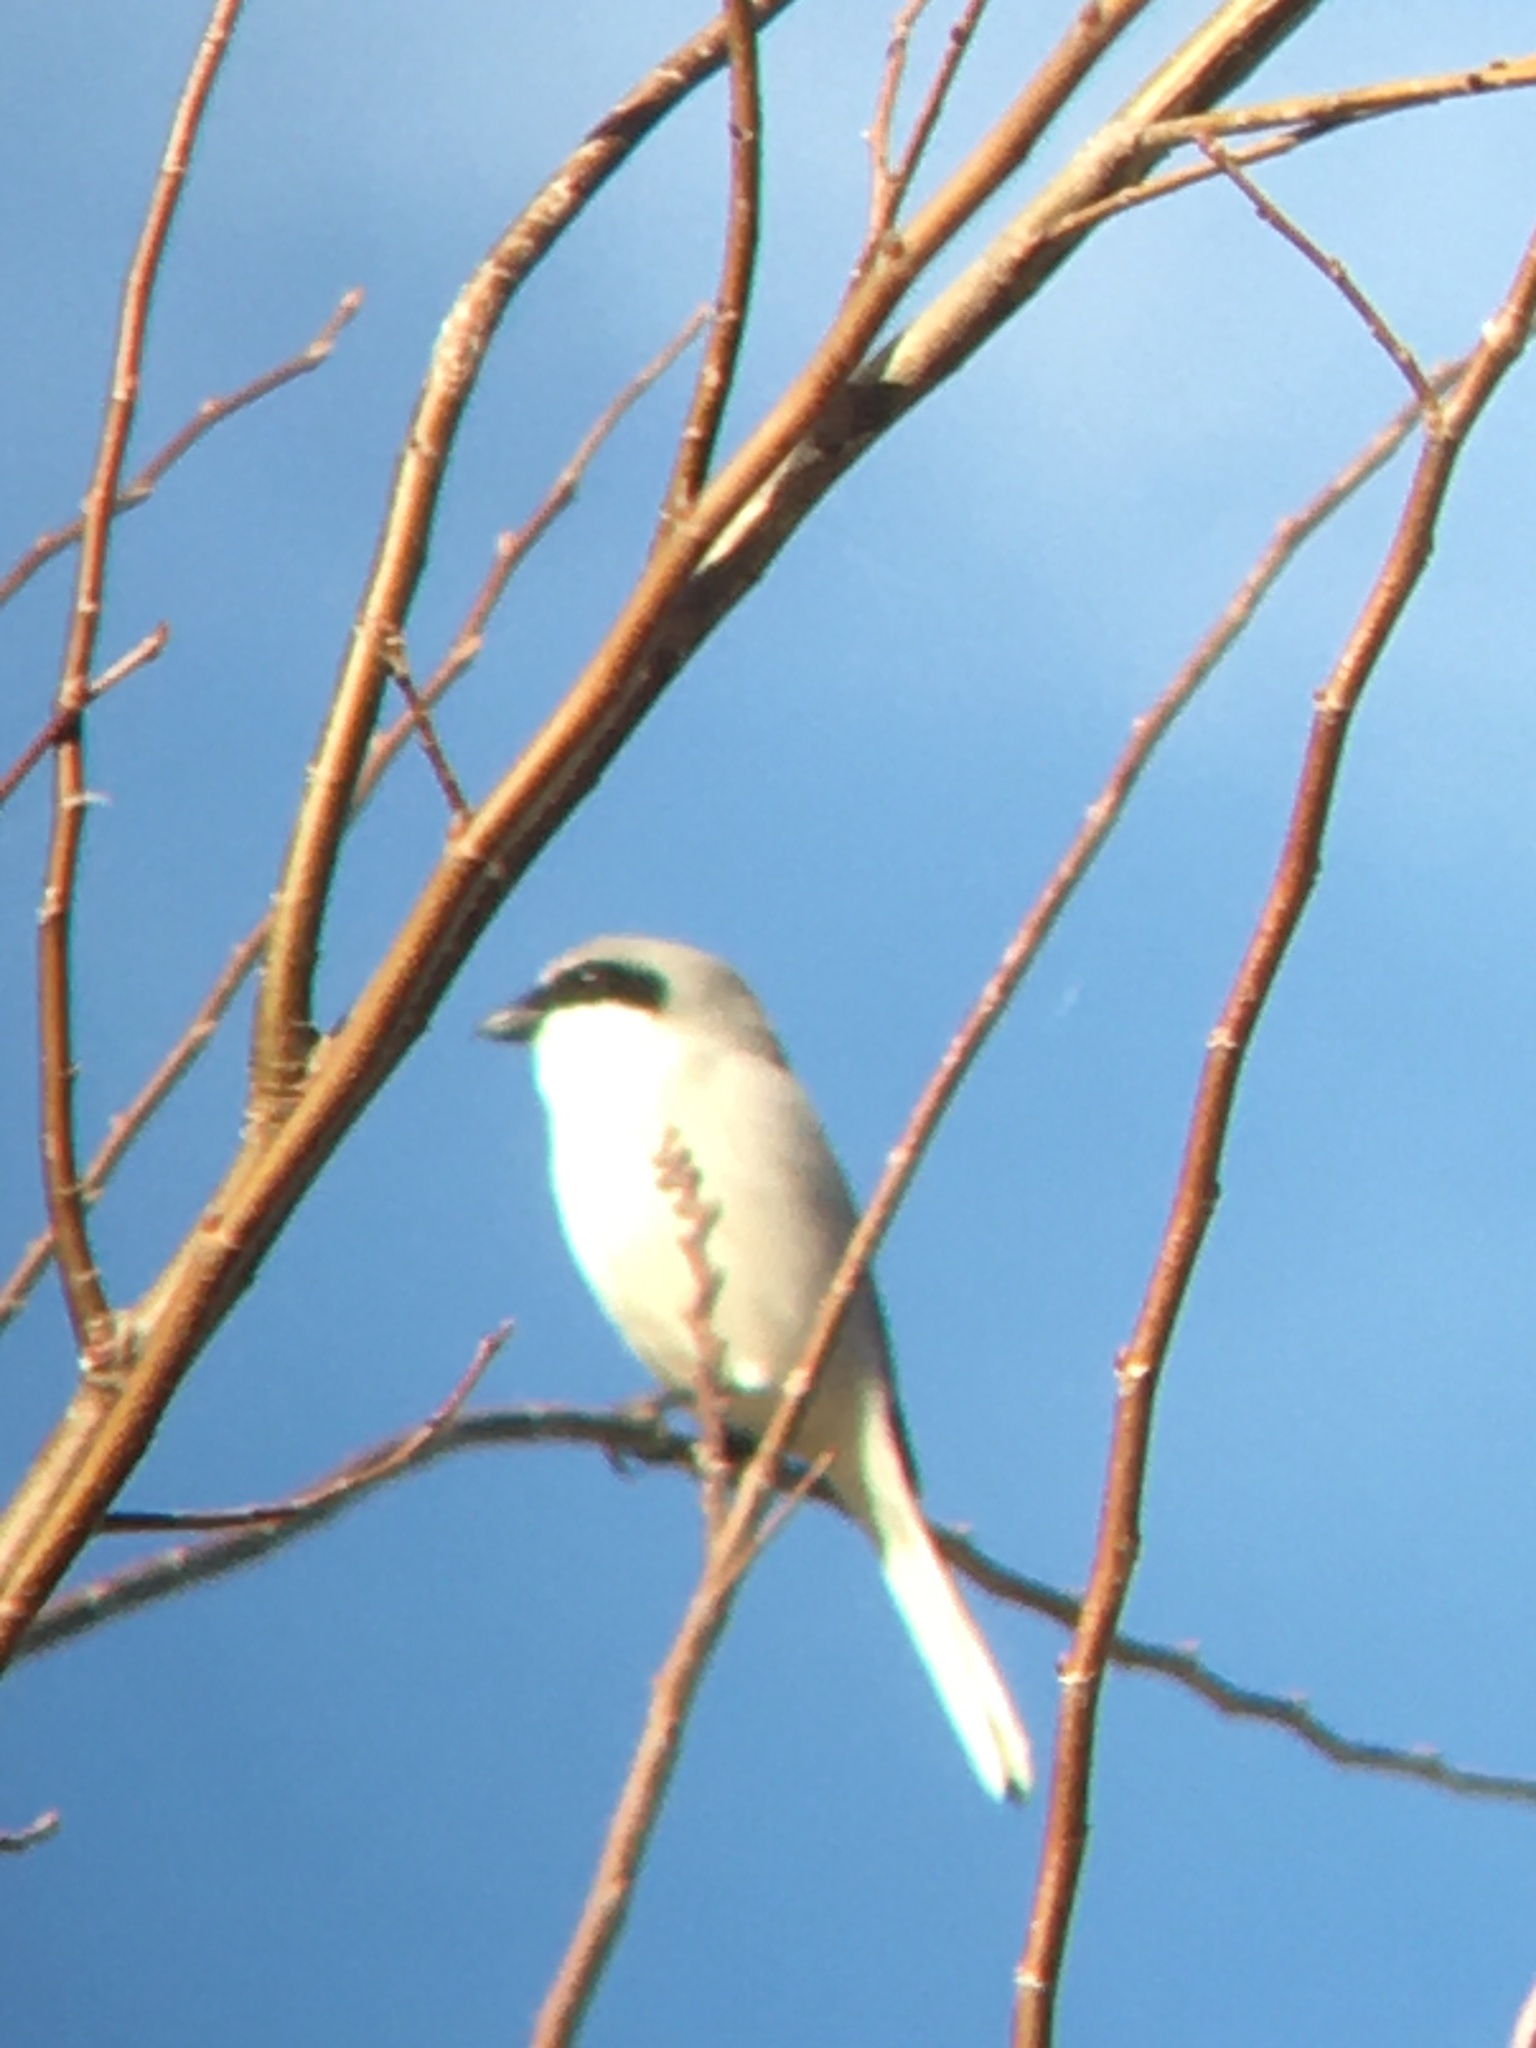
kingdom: Animalia
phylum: Chordata
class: Aves
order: Passeriformes
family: Laniidae
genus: Lanius
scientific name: Lanius ludovicianus
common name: Loggerhead shrike
